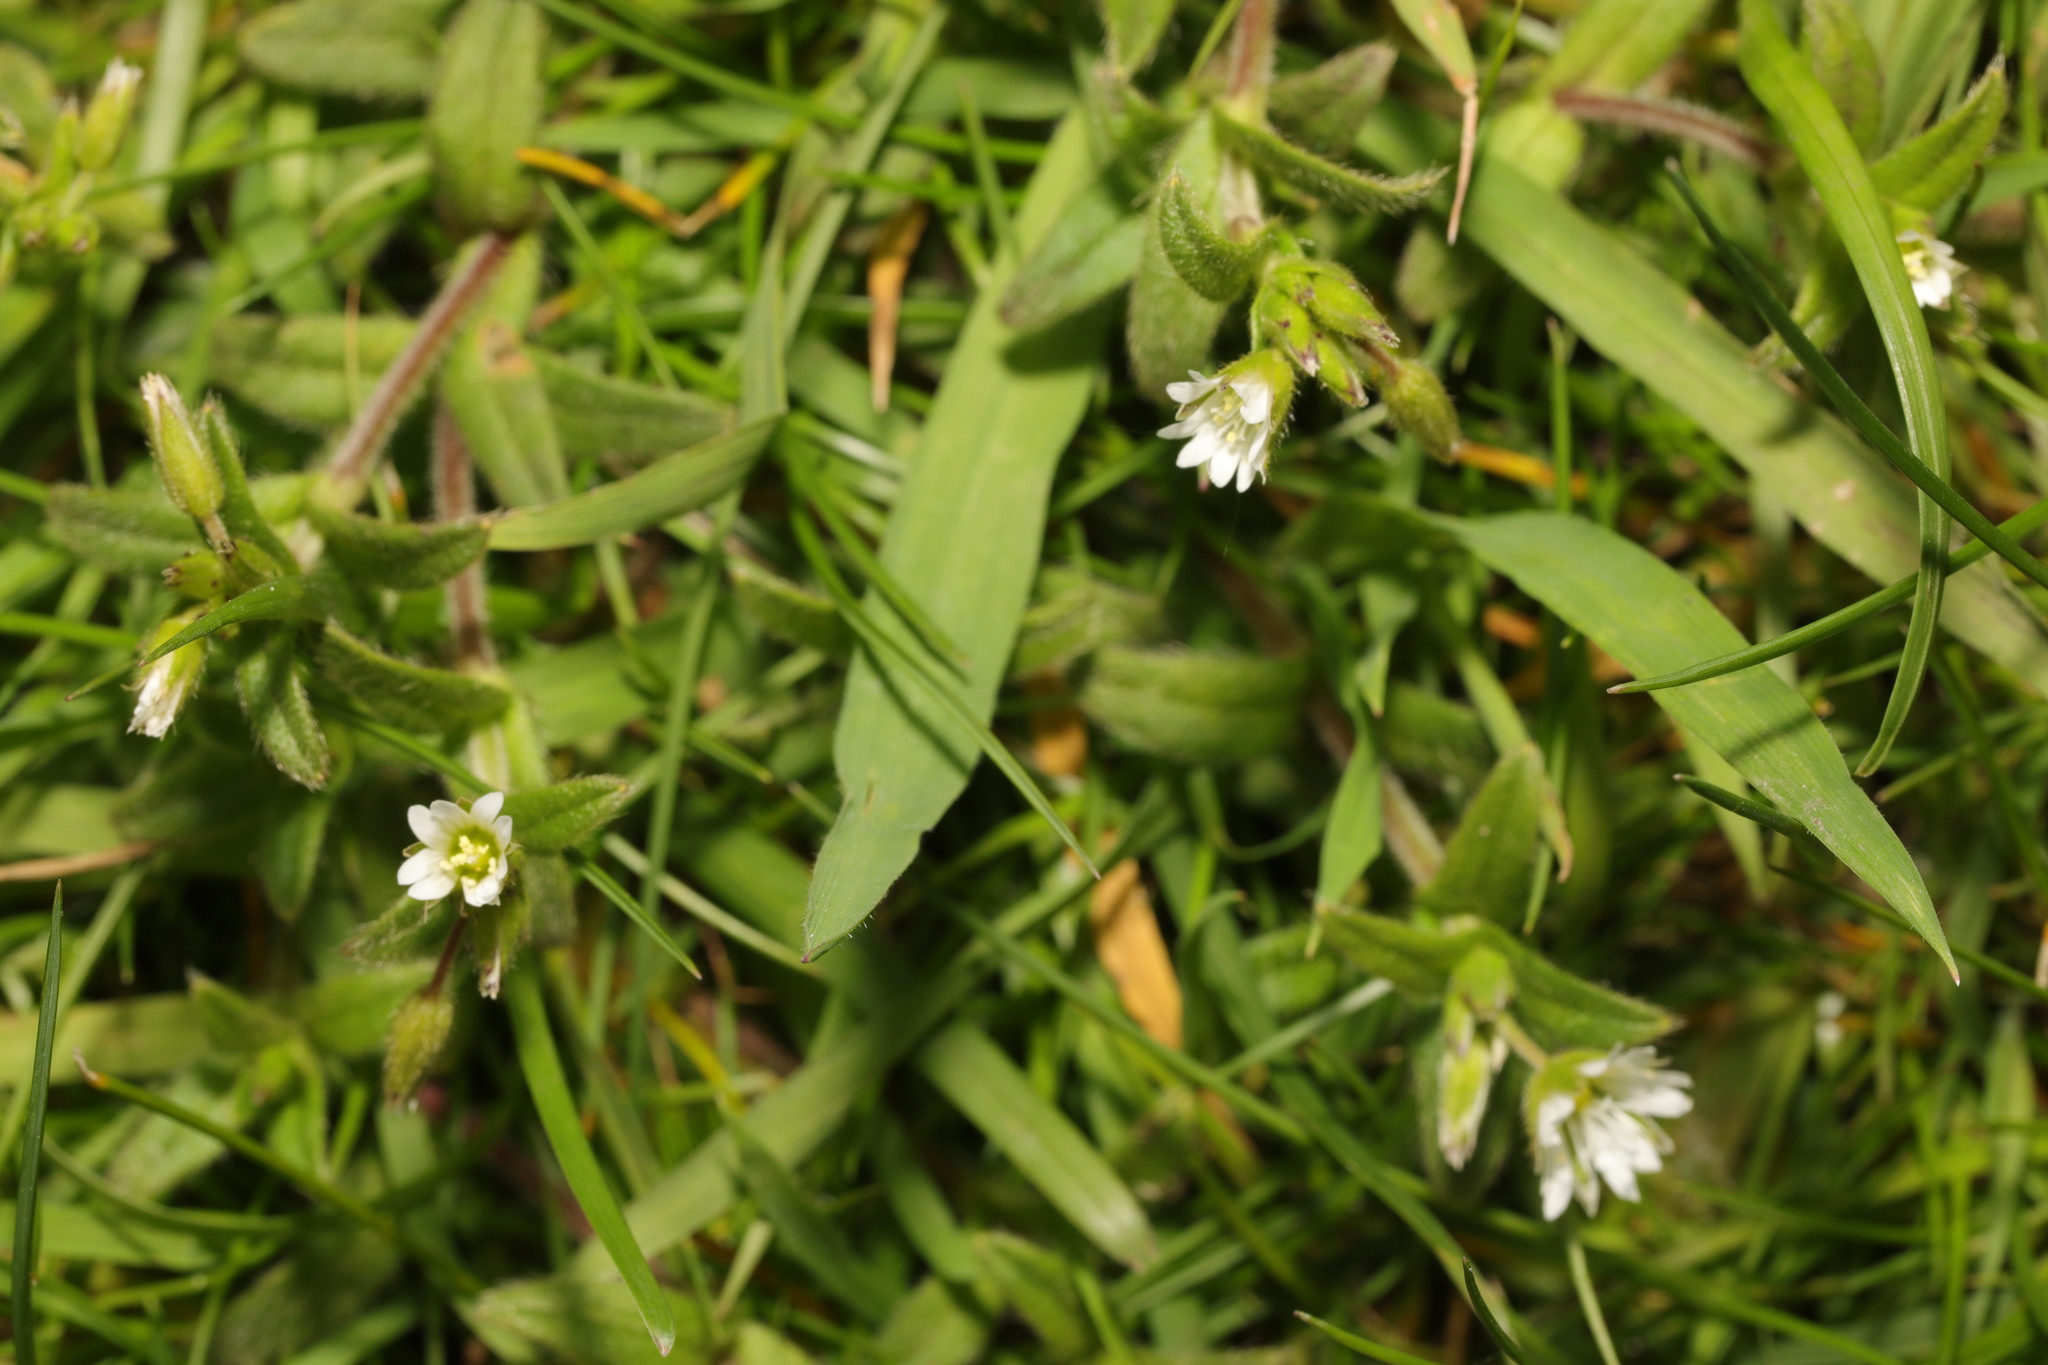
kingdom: Plantae
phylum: Tracheophyta
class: Magnoliopsida
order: Caryophyllales
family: Caryophyllaceae
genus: Cerastium
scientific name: Cerastium fontanum
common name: Common mouse-ear
